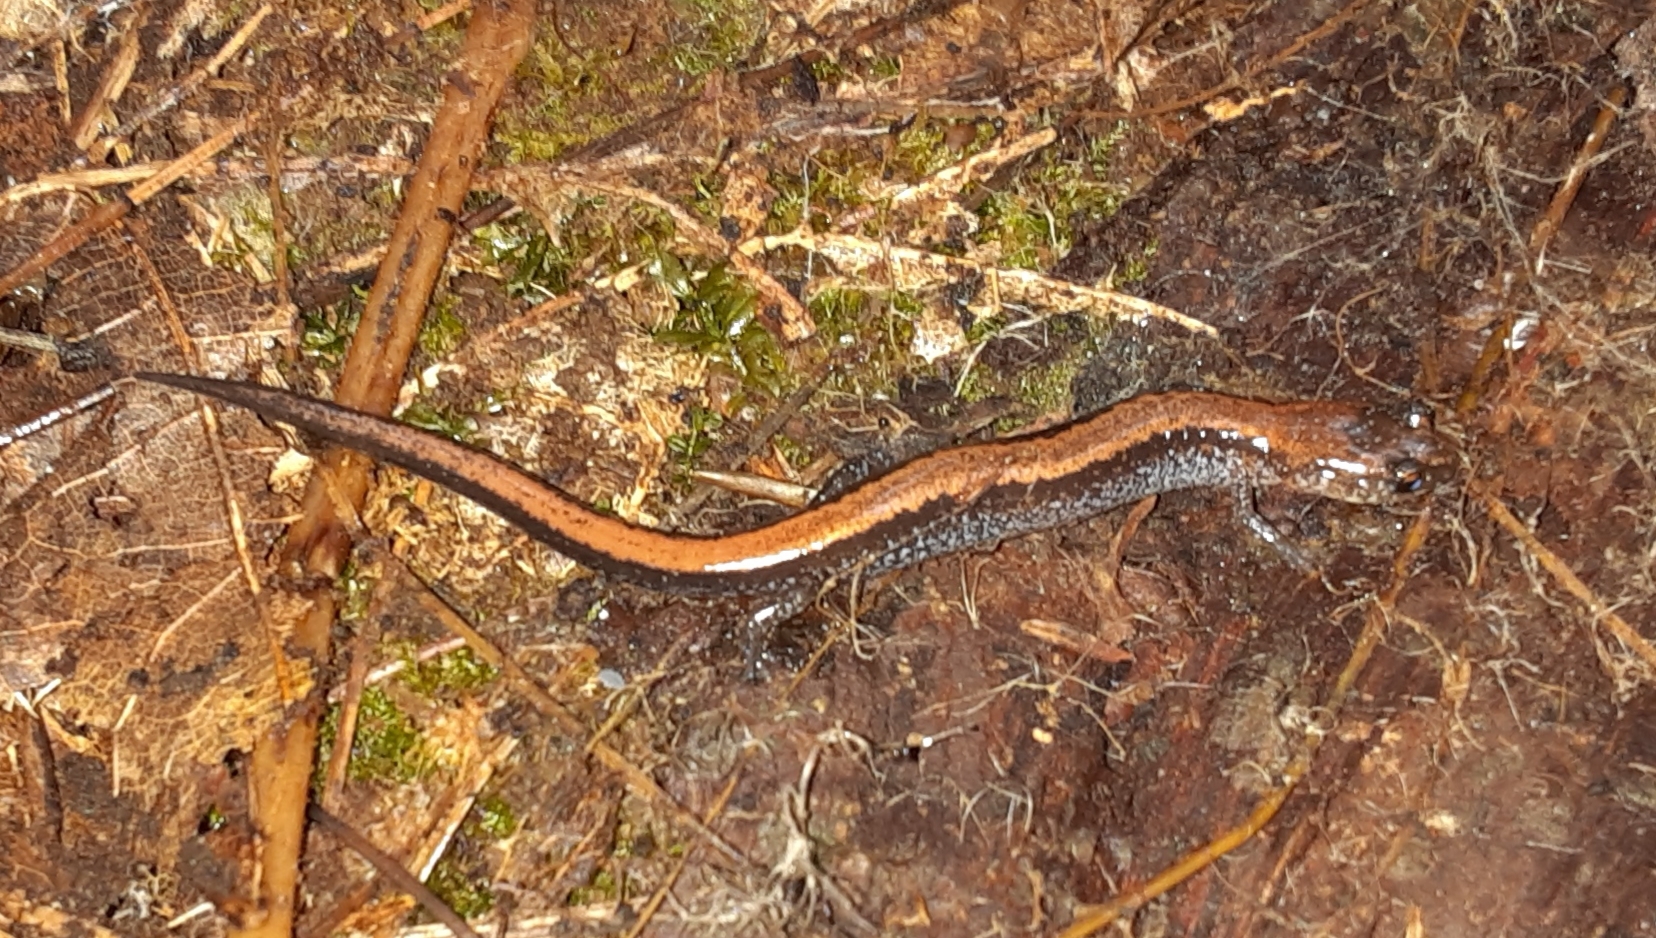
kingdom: Animalia
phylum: Chordata
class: Amphibia
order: Caudata
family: Plethodontidae
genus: Plethodon
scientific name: Plethodon cinereus
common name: Redback salamander
